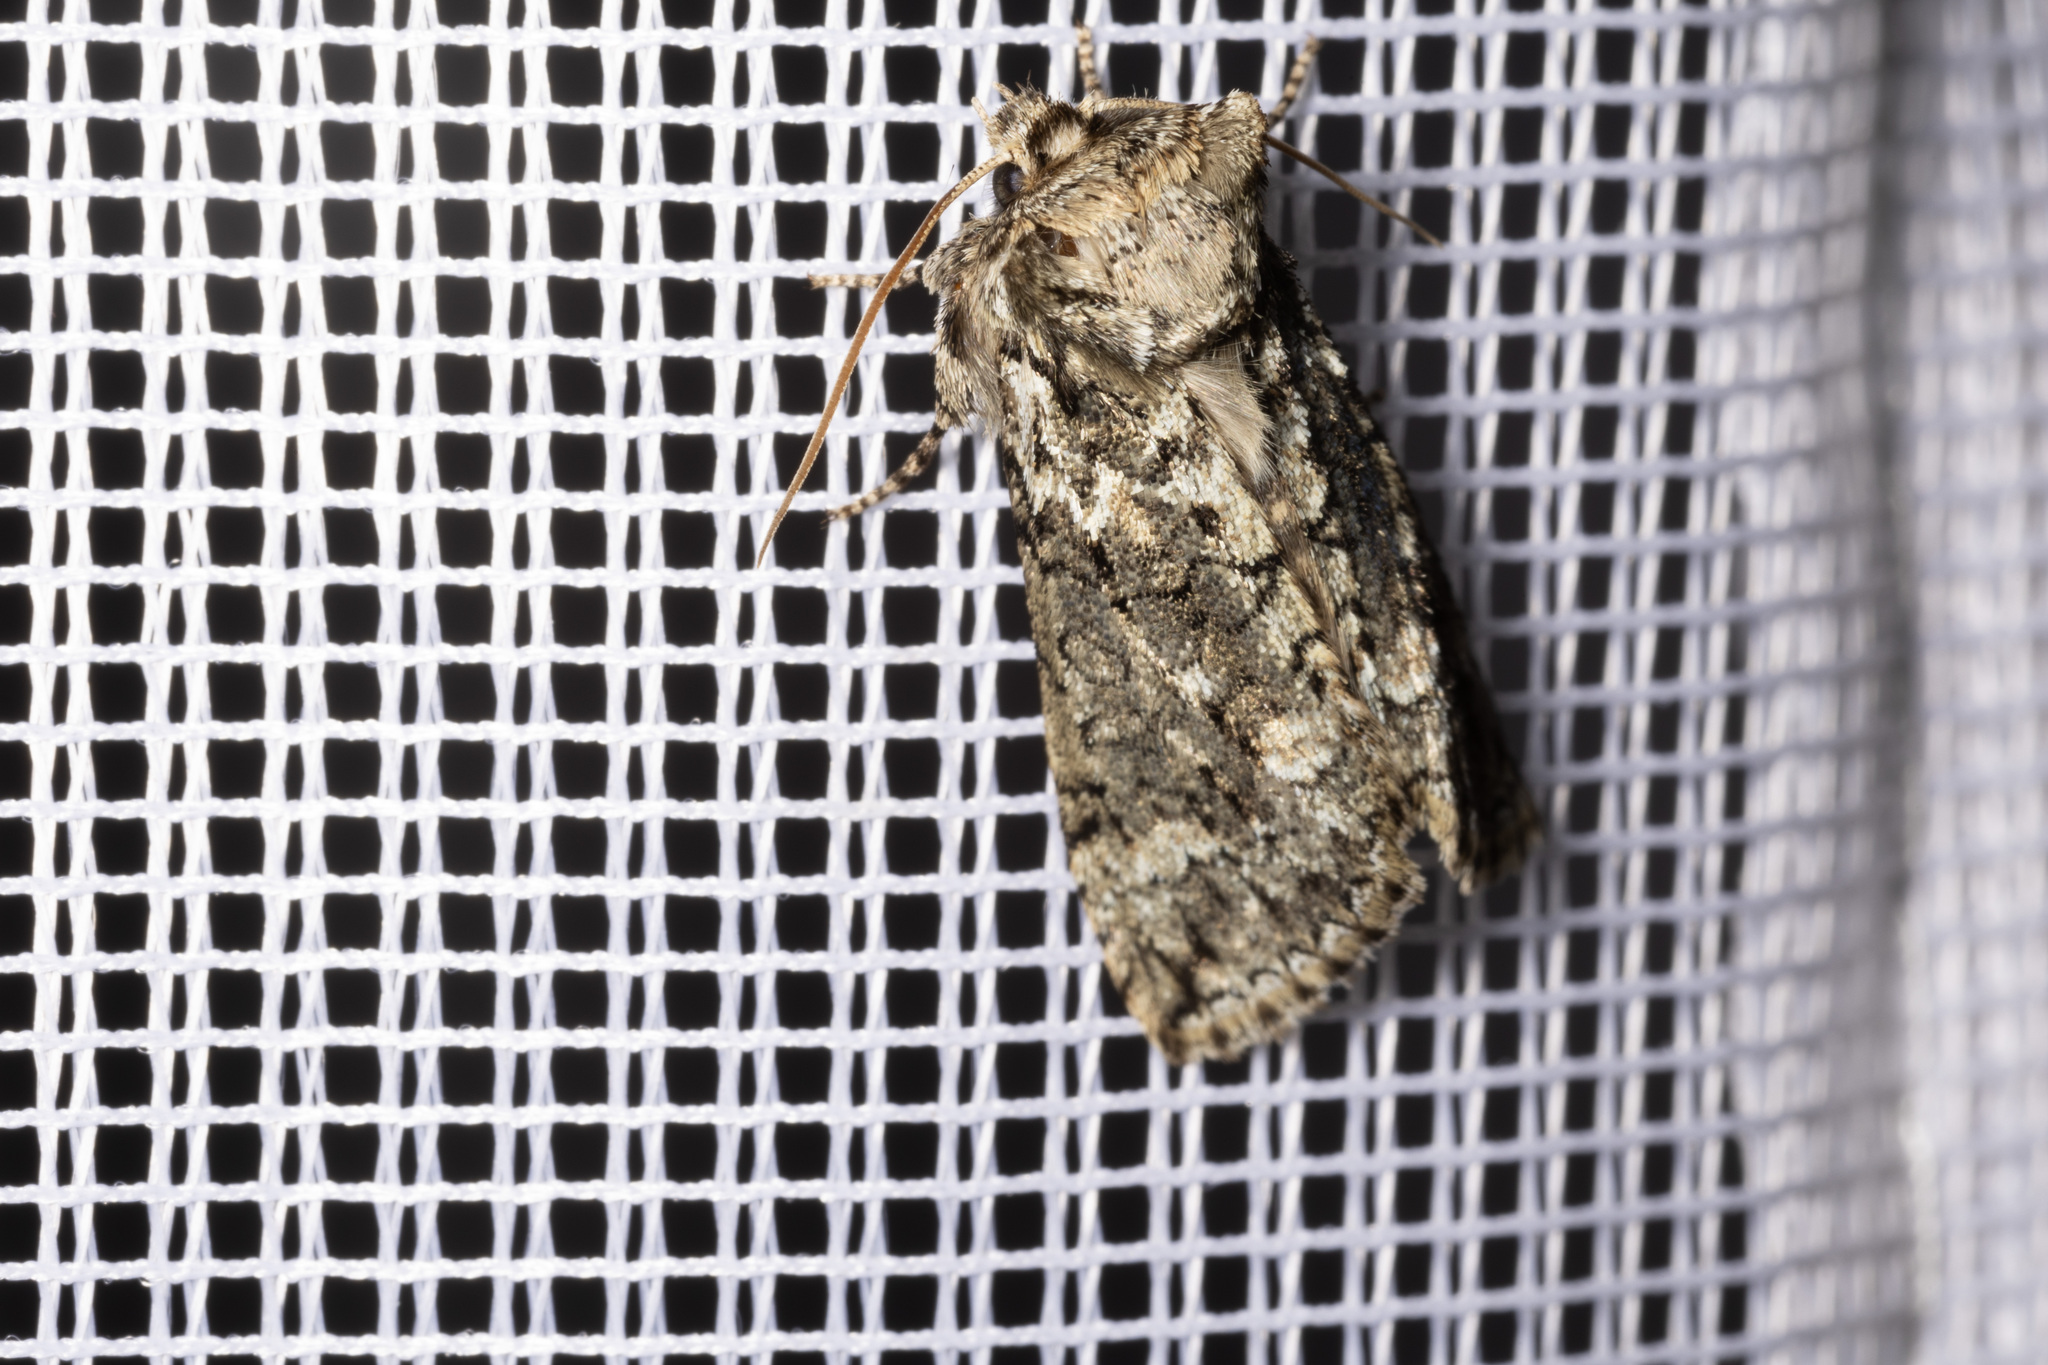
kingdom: Animalia
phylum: Arthropoda
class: Insecta
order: Lepidoptera
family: Drepanidae
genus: Polyploca
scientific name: Polyploca ridens
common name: Frosted green
